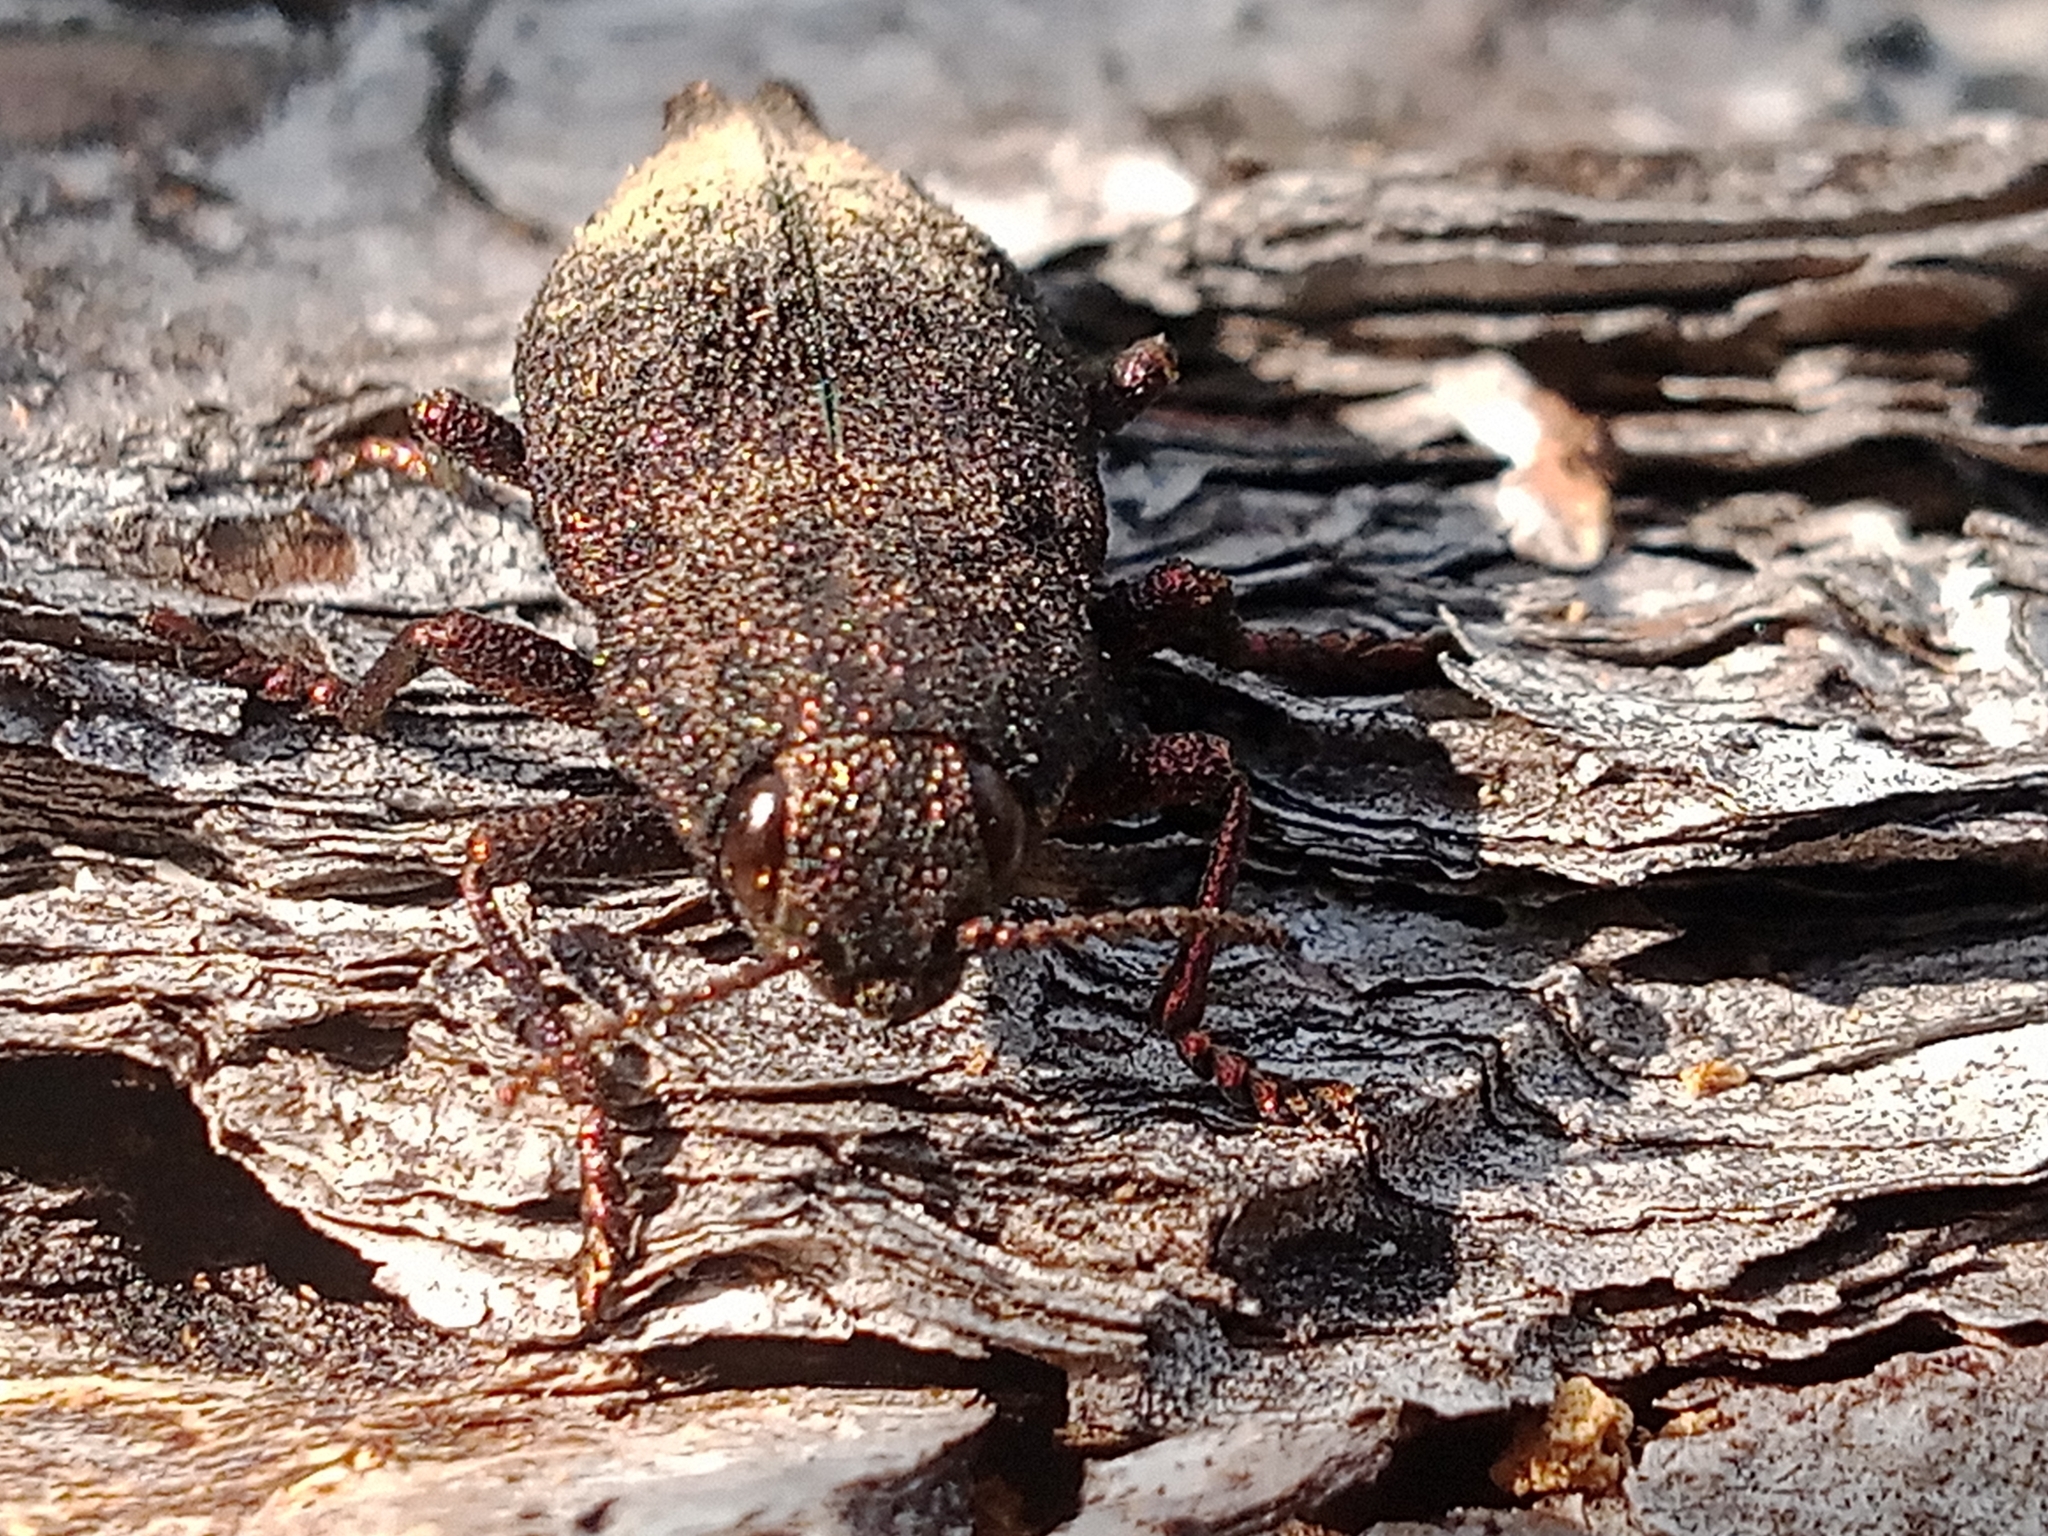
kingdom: Animalia
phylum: Arthropoda
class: Insecta
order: Coleoptera
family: Buprestidae
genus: Dicerca
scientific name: Dicerca furcata
